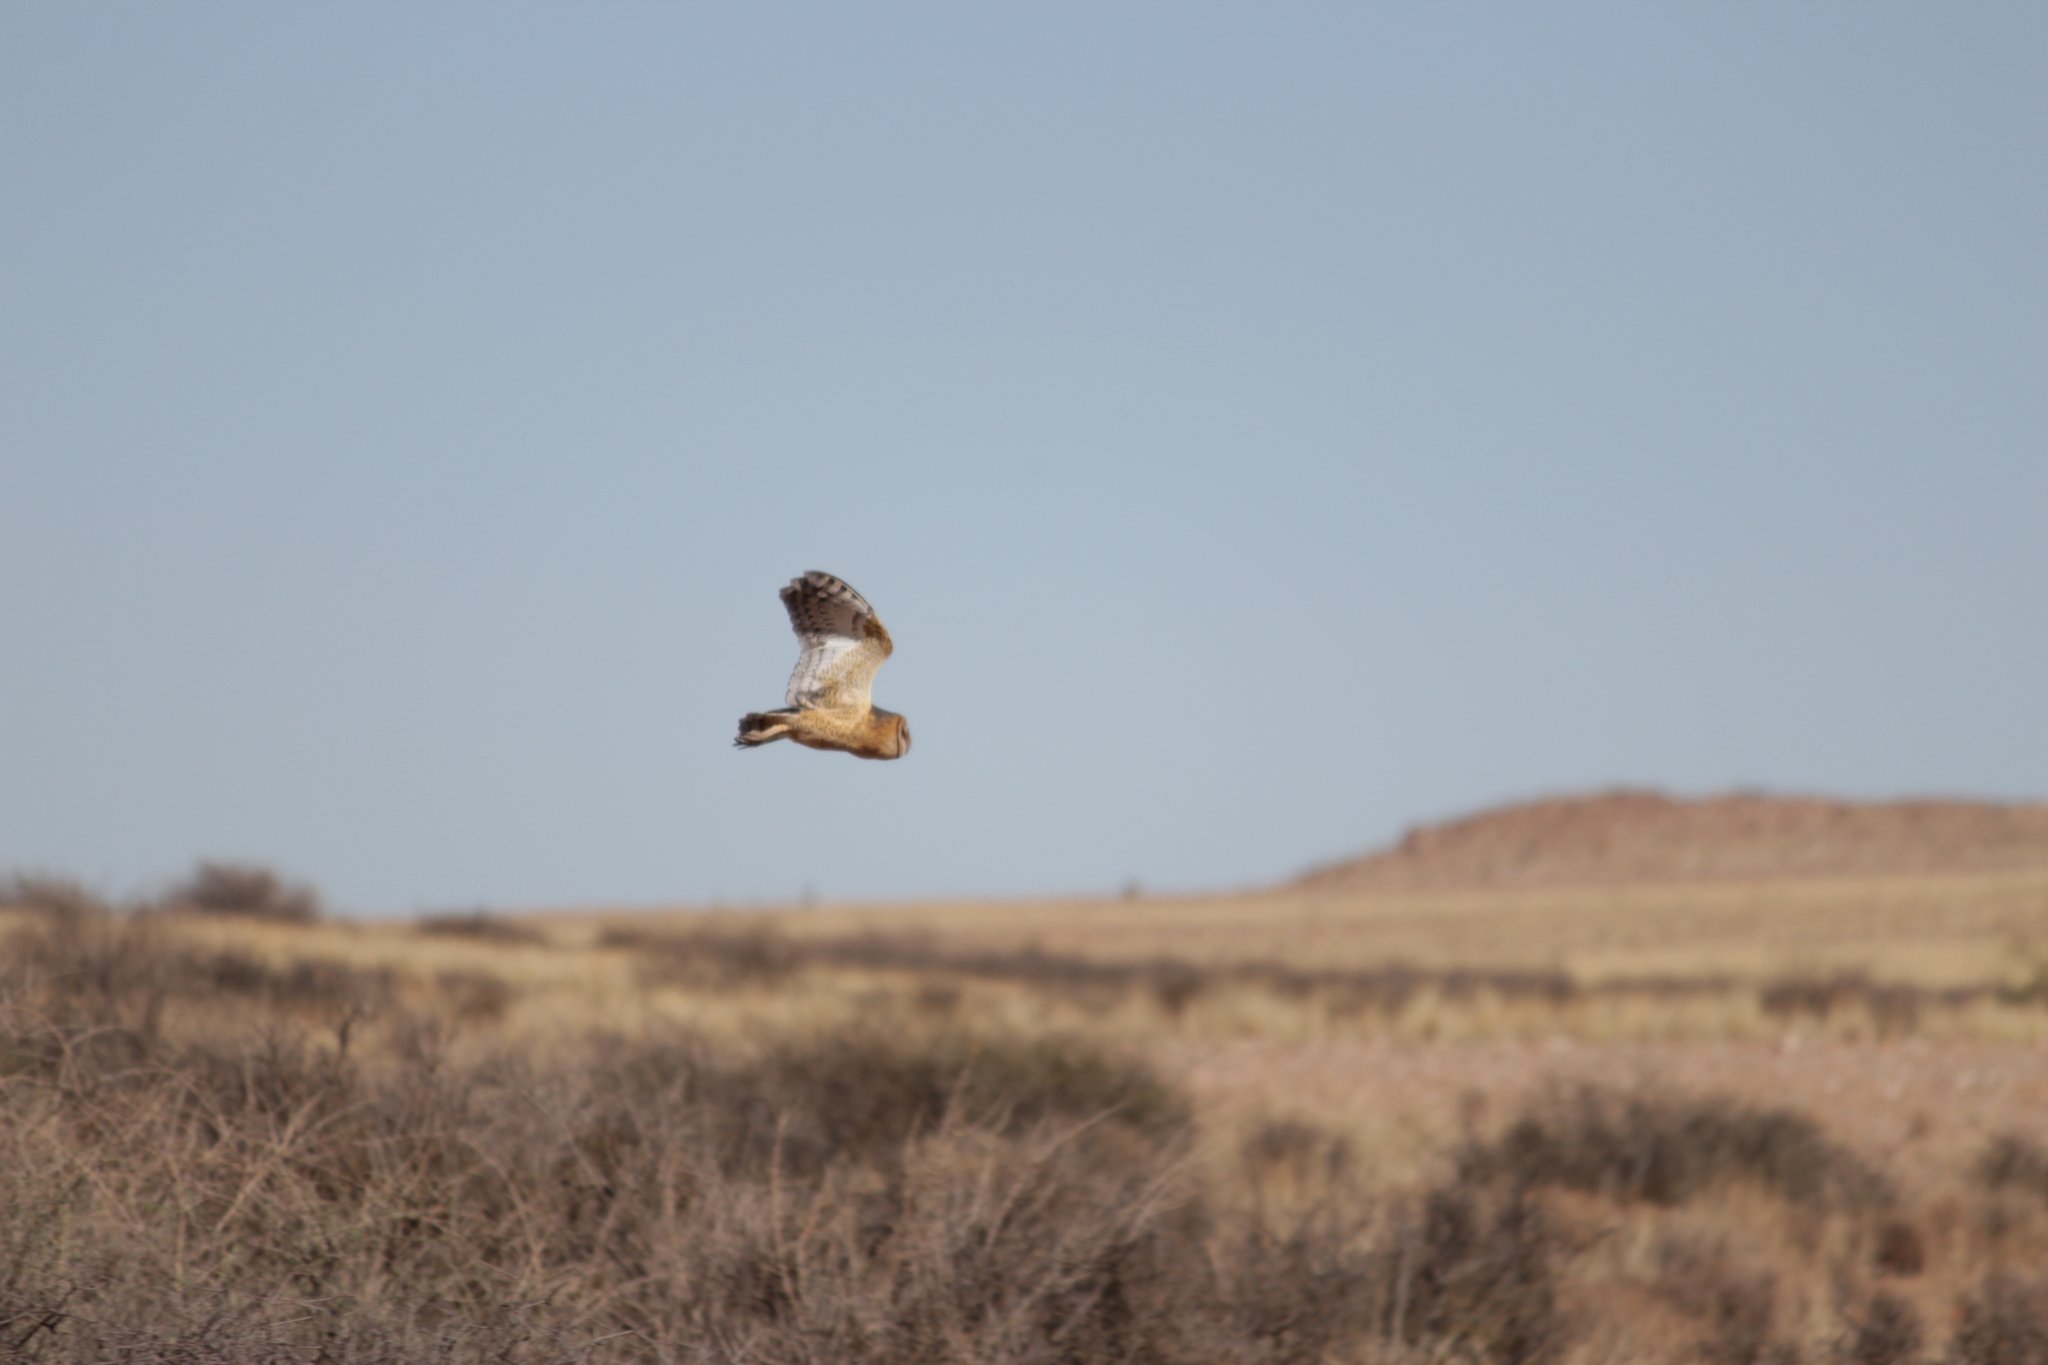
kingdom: Animalia
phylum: Chordata
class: Aves
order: Strigiformes
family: Tytonidae
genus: Tyto
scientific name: Tyto alba
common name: Barn owl
